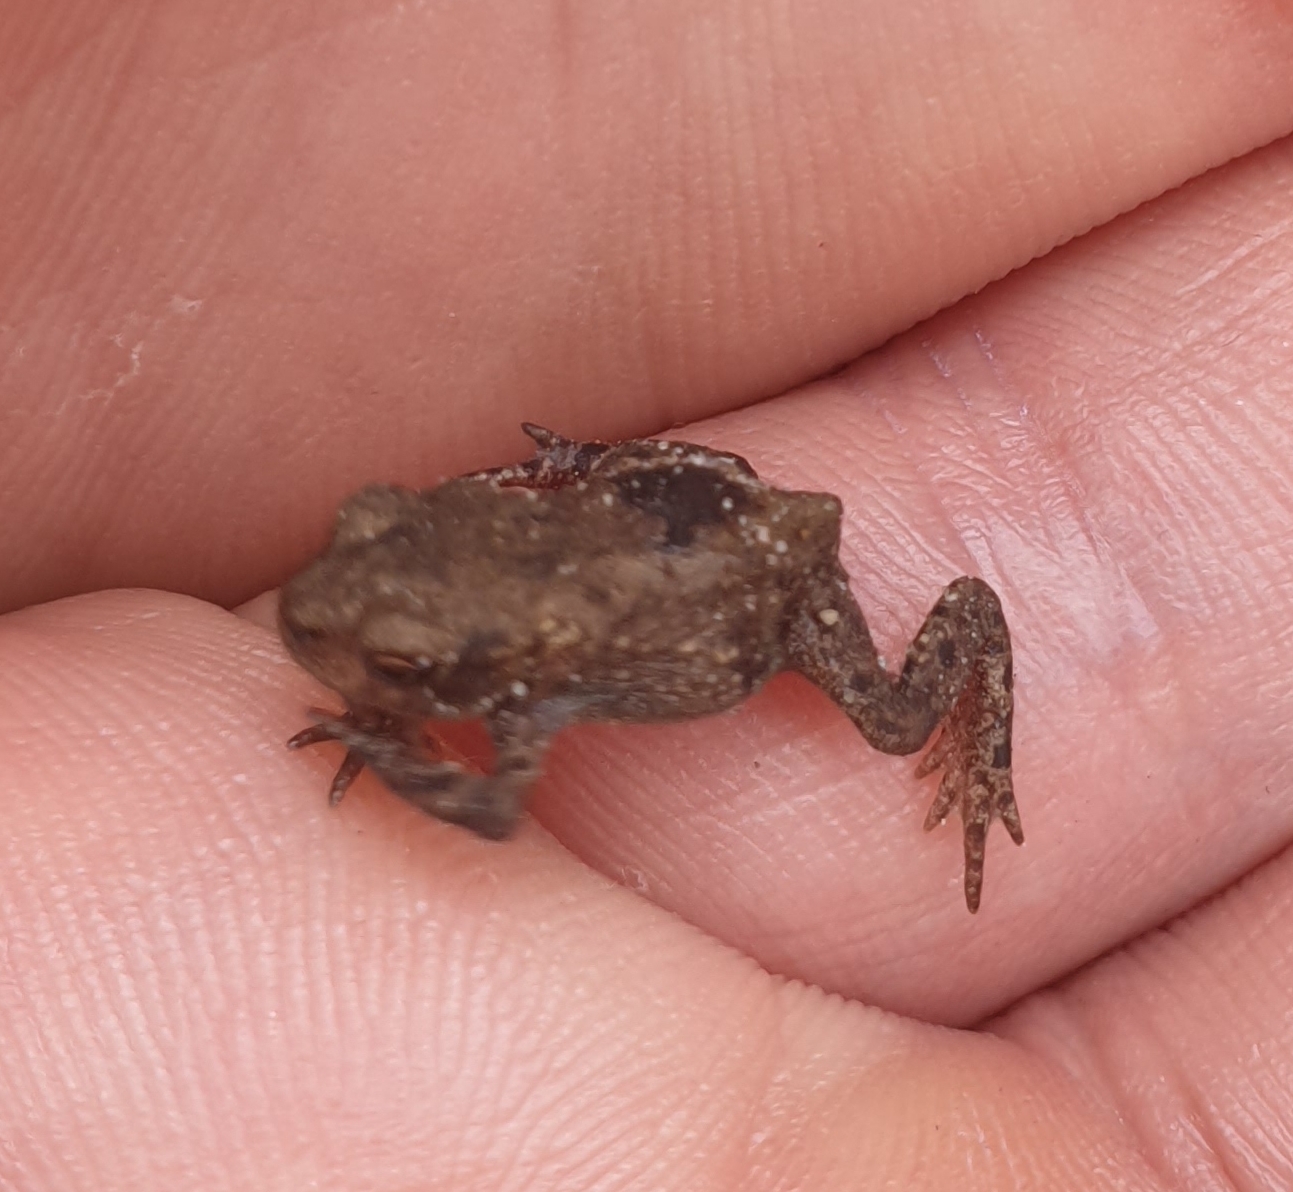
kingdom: Animalia
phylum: Chordata
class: Amphibia
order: Anura
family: Bufonidae
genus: Bufo
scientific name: Bufo bufo
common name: Common toad
